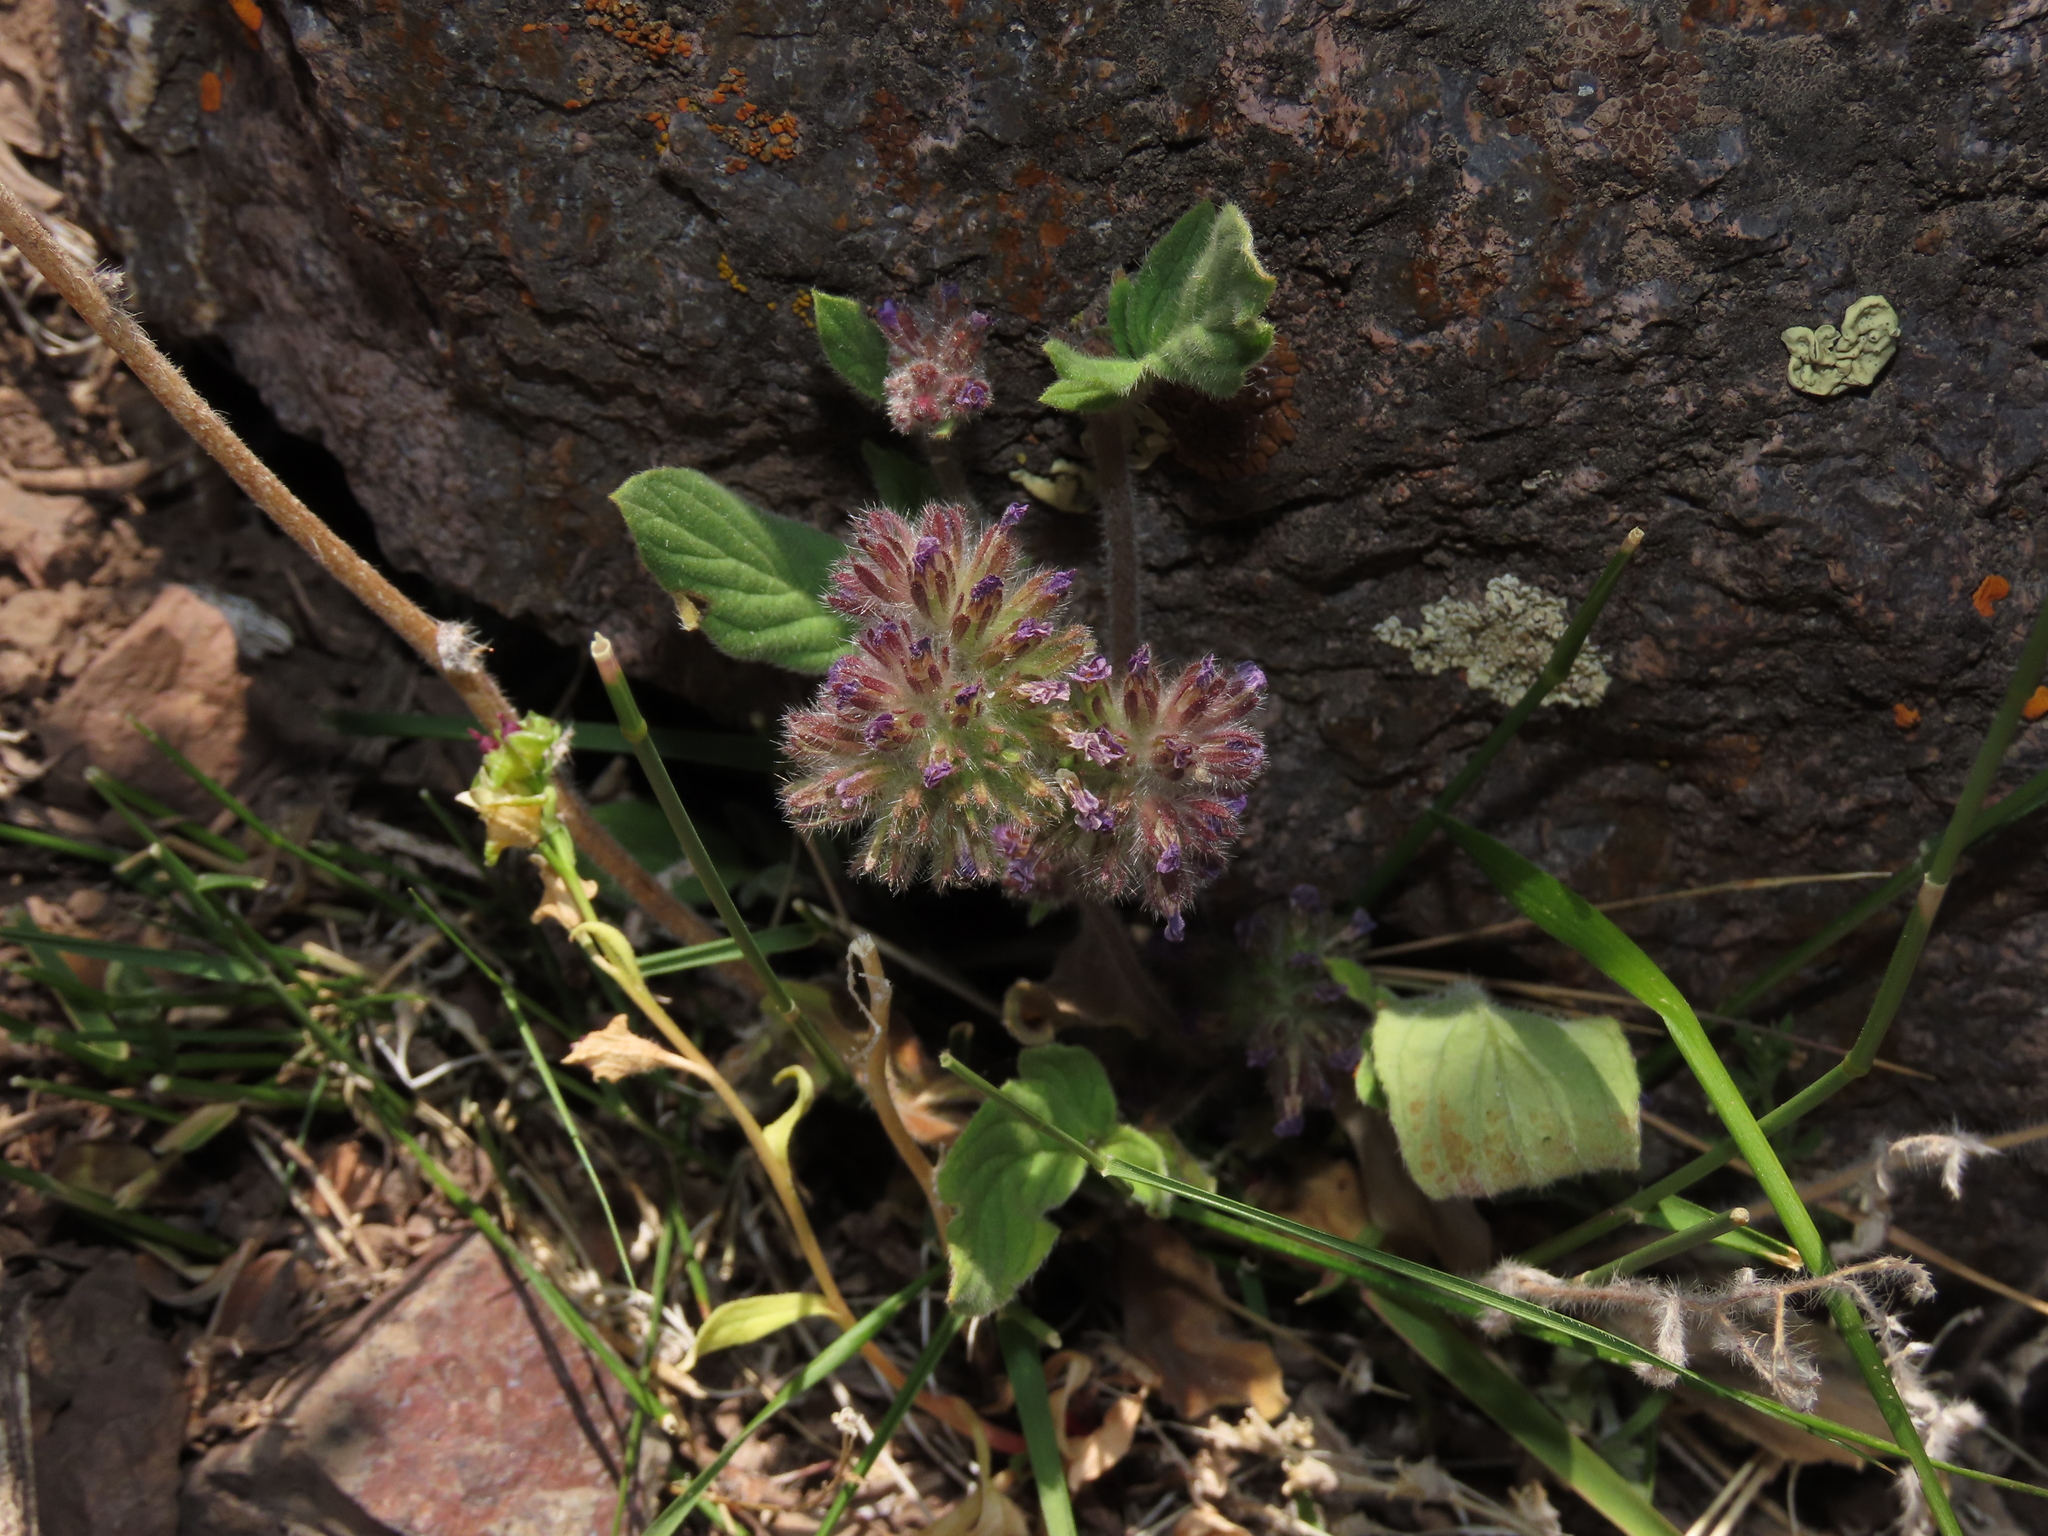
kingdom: Plantae
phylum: Tracheophyta
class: Magnoliopsida
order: Boraginales
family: Hydrophyllaceae
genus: Phacelia
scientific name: Phacelia brachyantha
